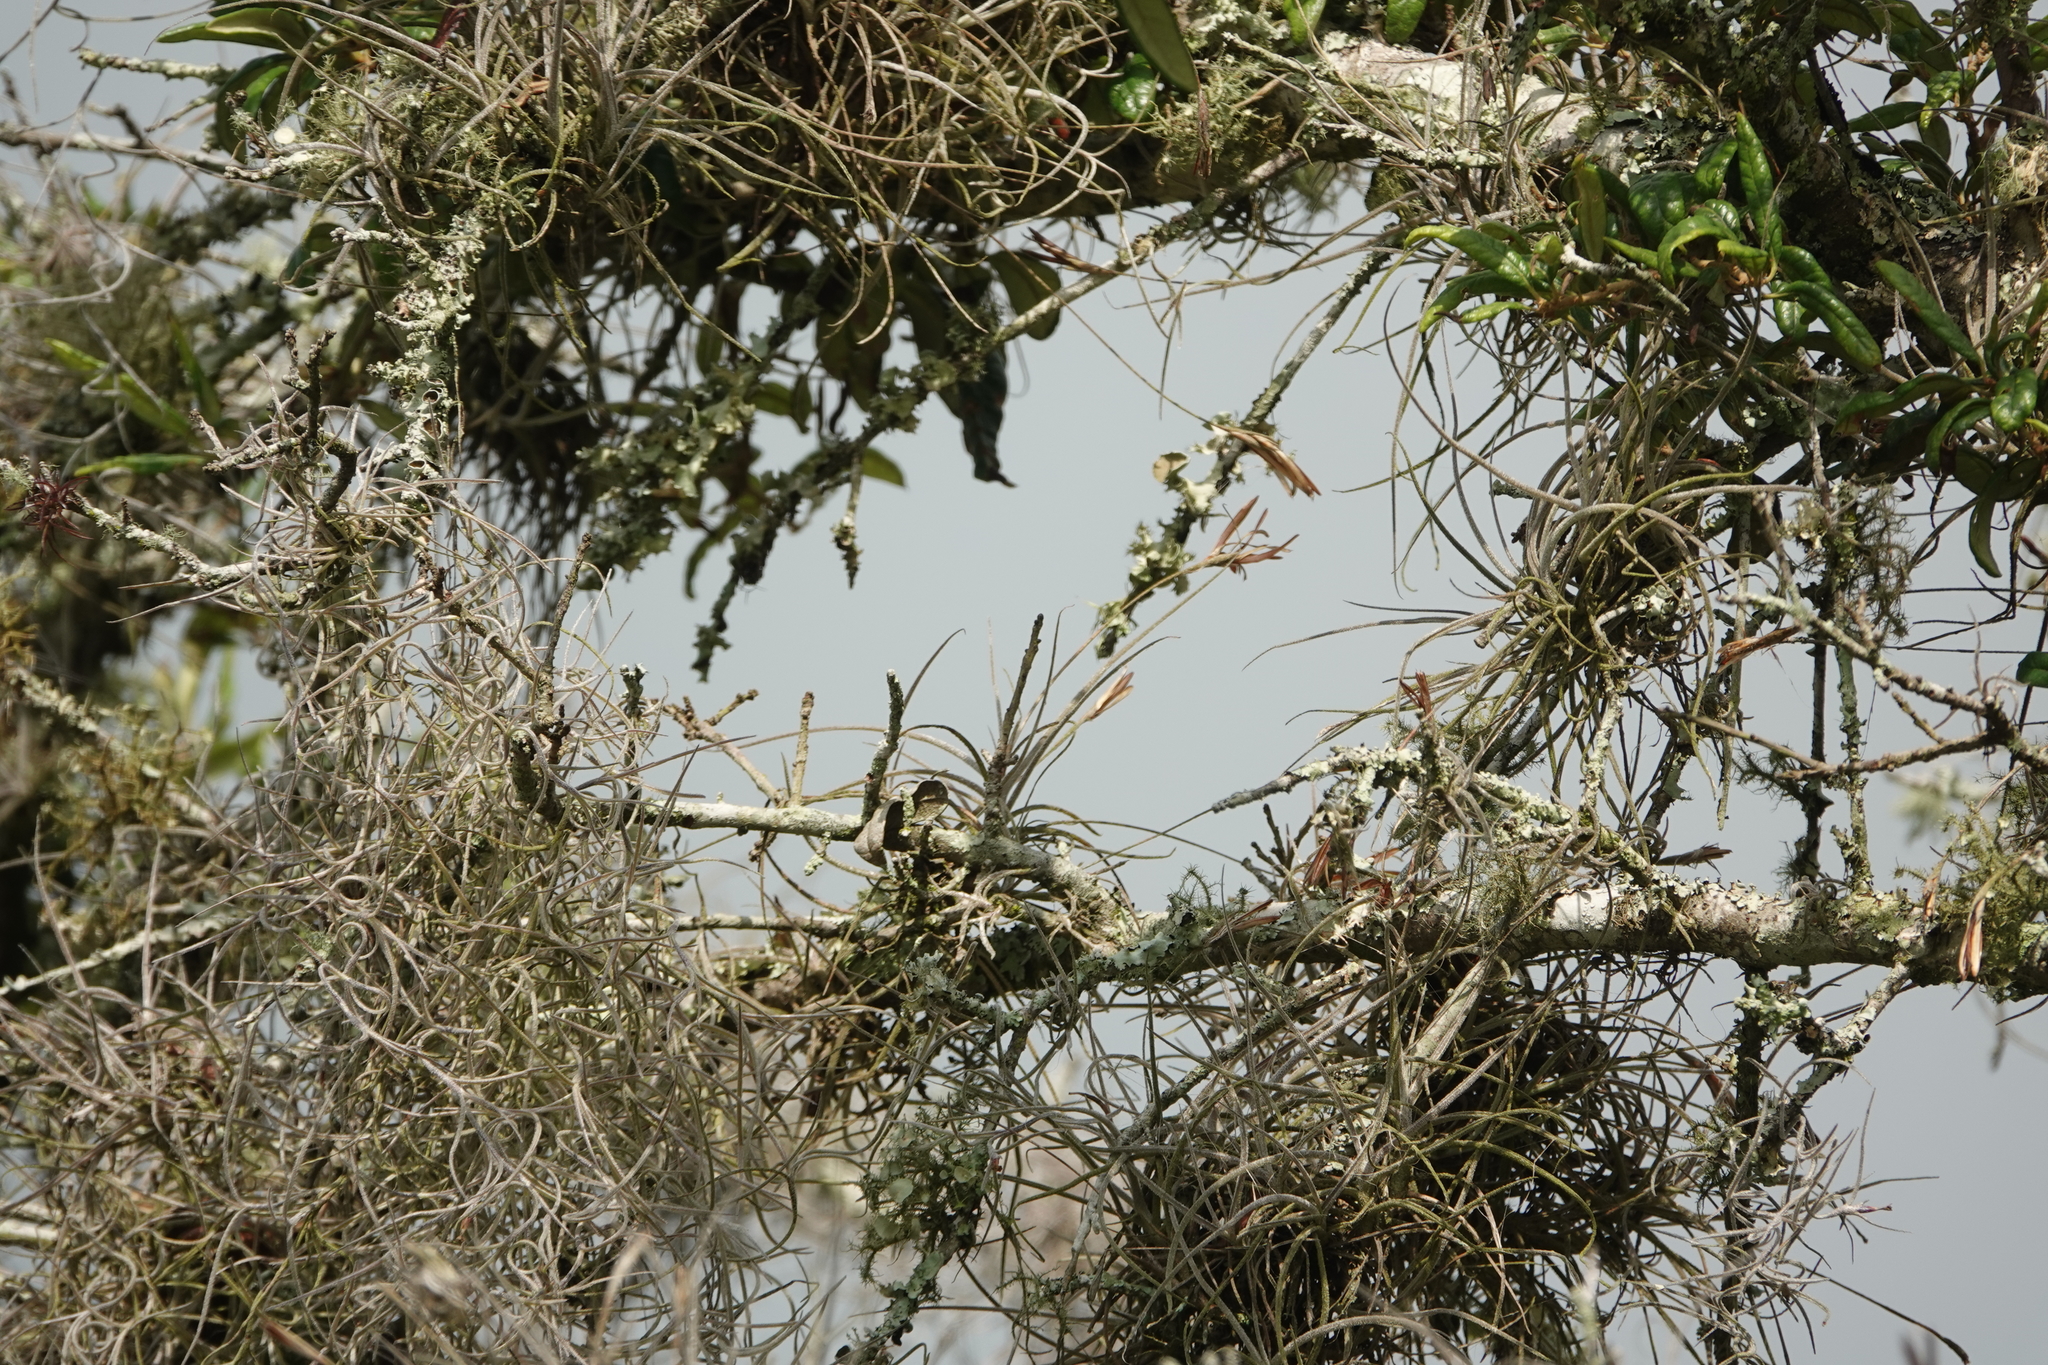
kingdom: Plantae
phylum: Tracheophyta
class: Liliopsida
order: Poales
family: Bromeliaceae
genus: Tillandsia
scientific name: Tillandsia recurvata
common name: Small ballmoss
